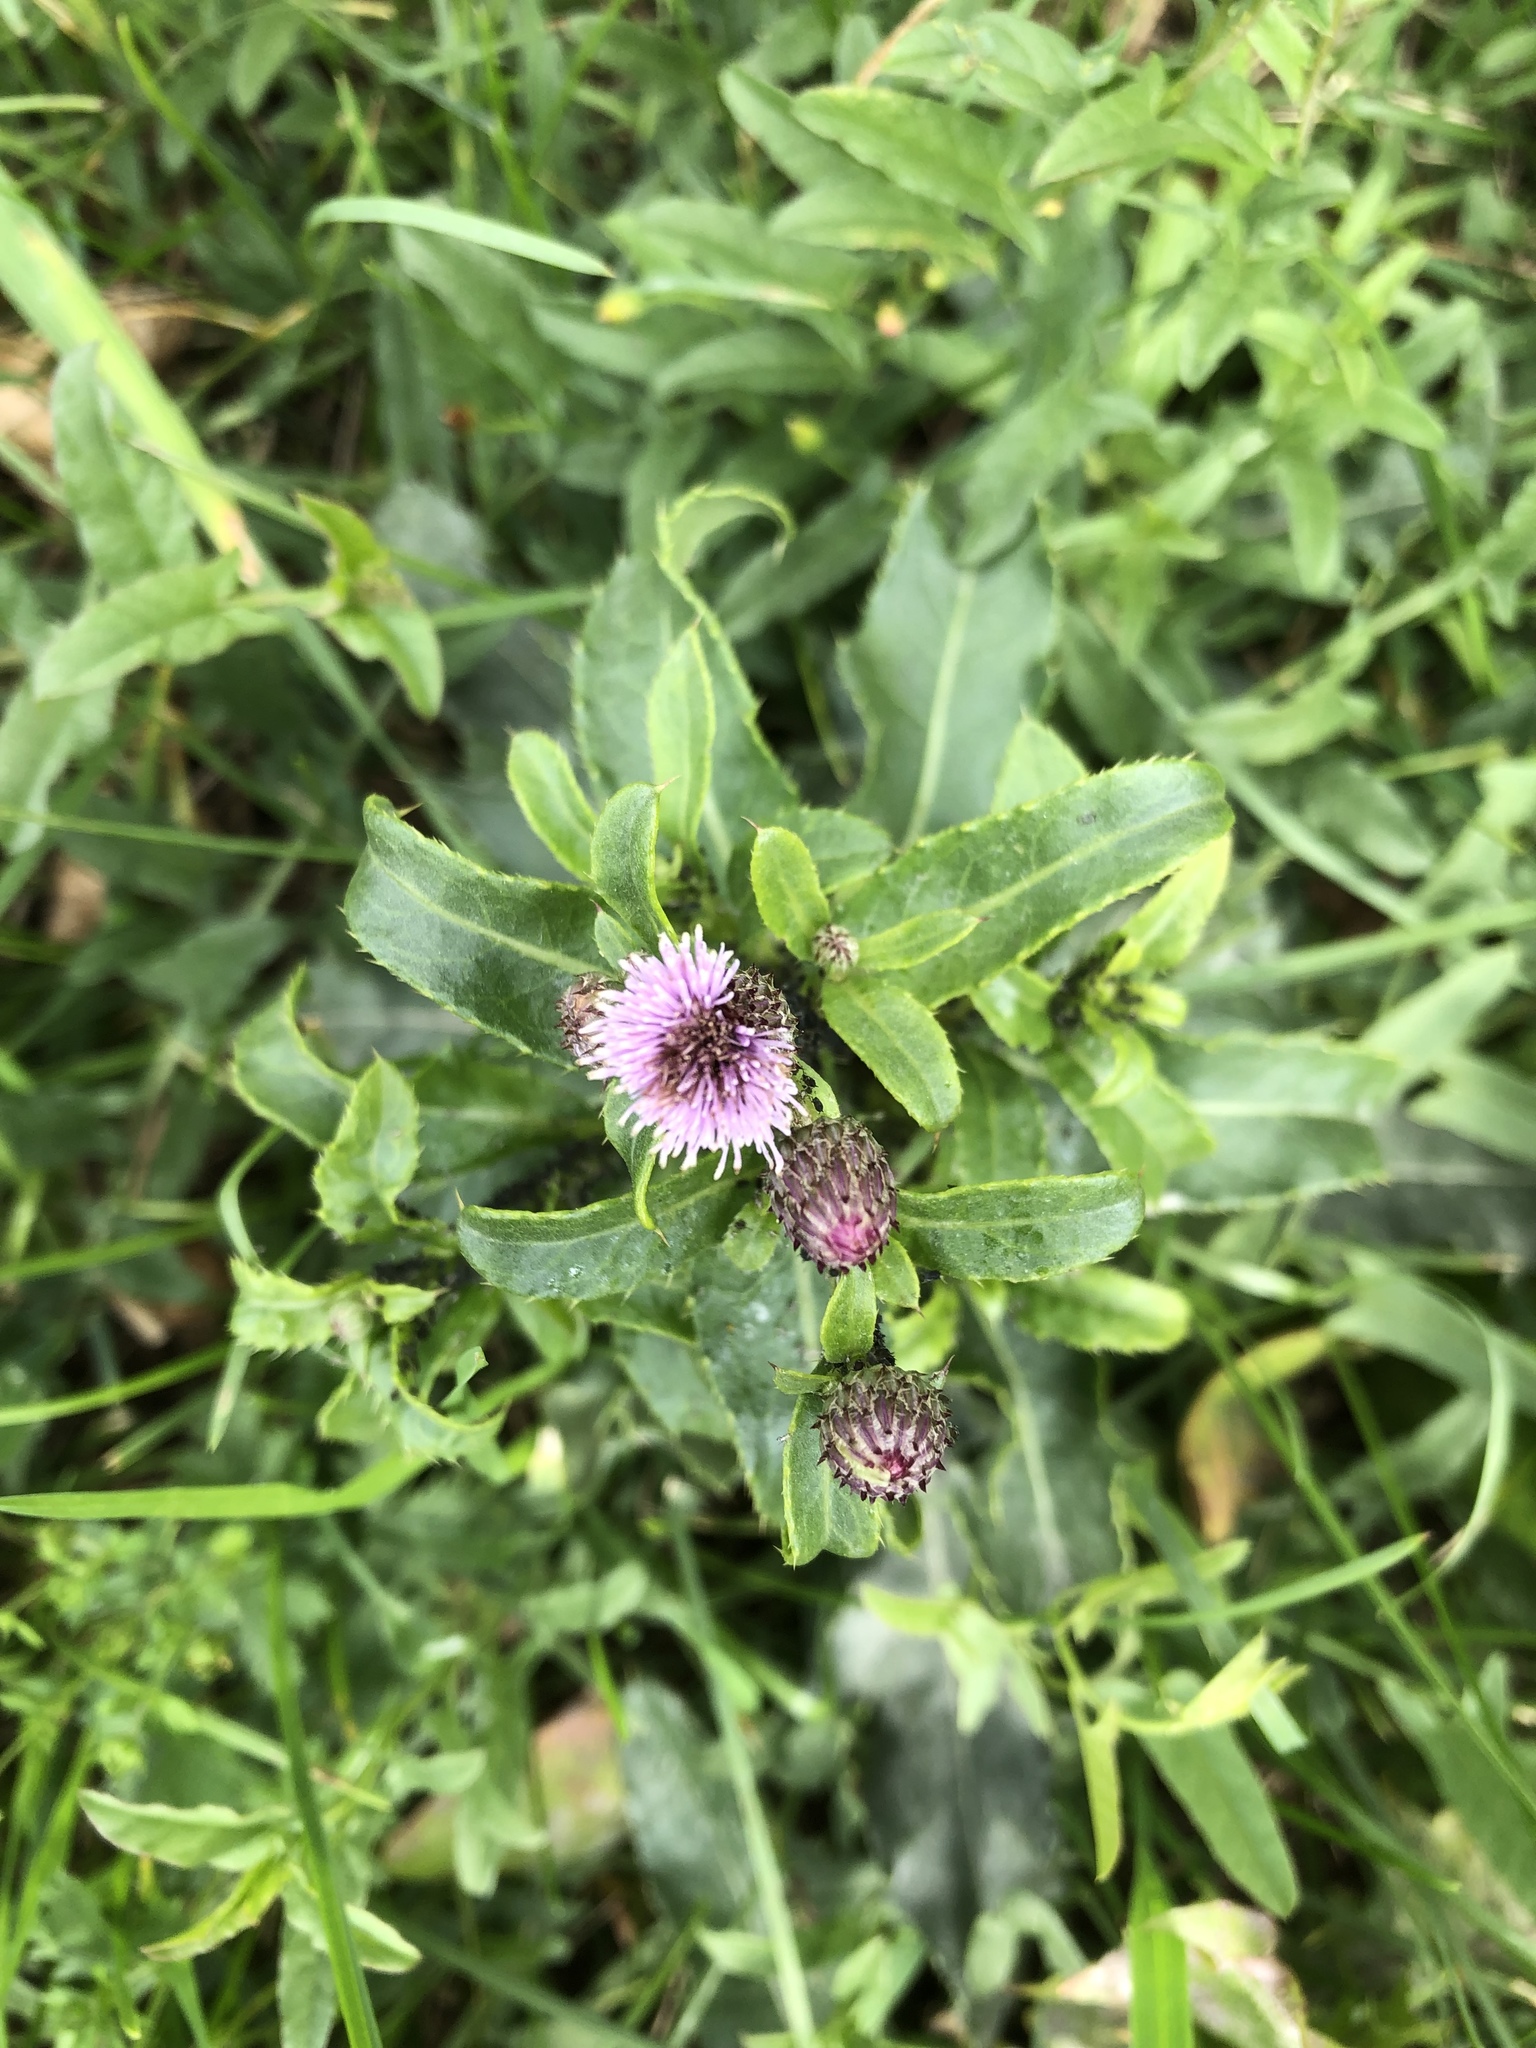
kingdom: Plantae
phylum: Tracheophyta
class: Magnoliopsida
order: Asterales
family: Asteraceae
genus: Cirsium
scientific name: Cirsium arvense
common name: Creeping thistle
